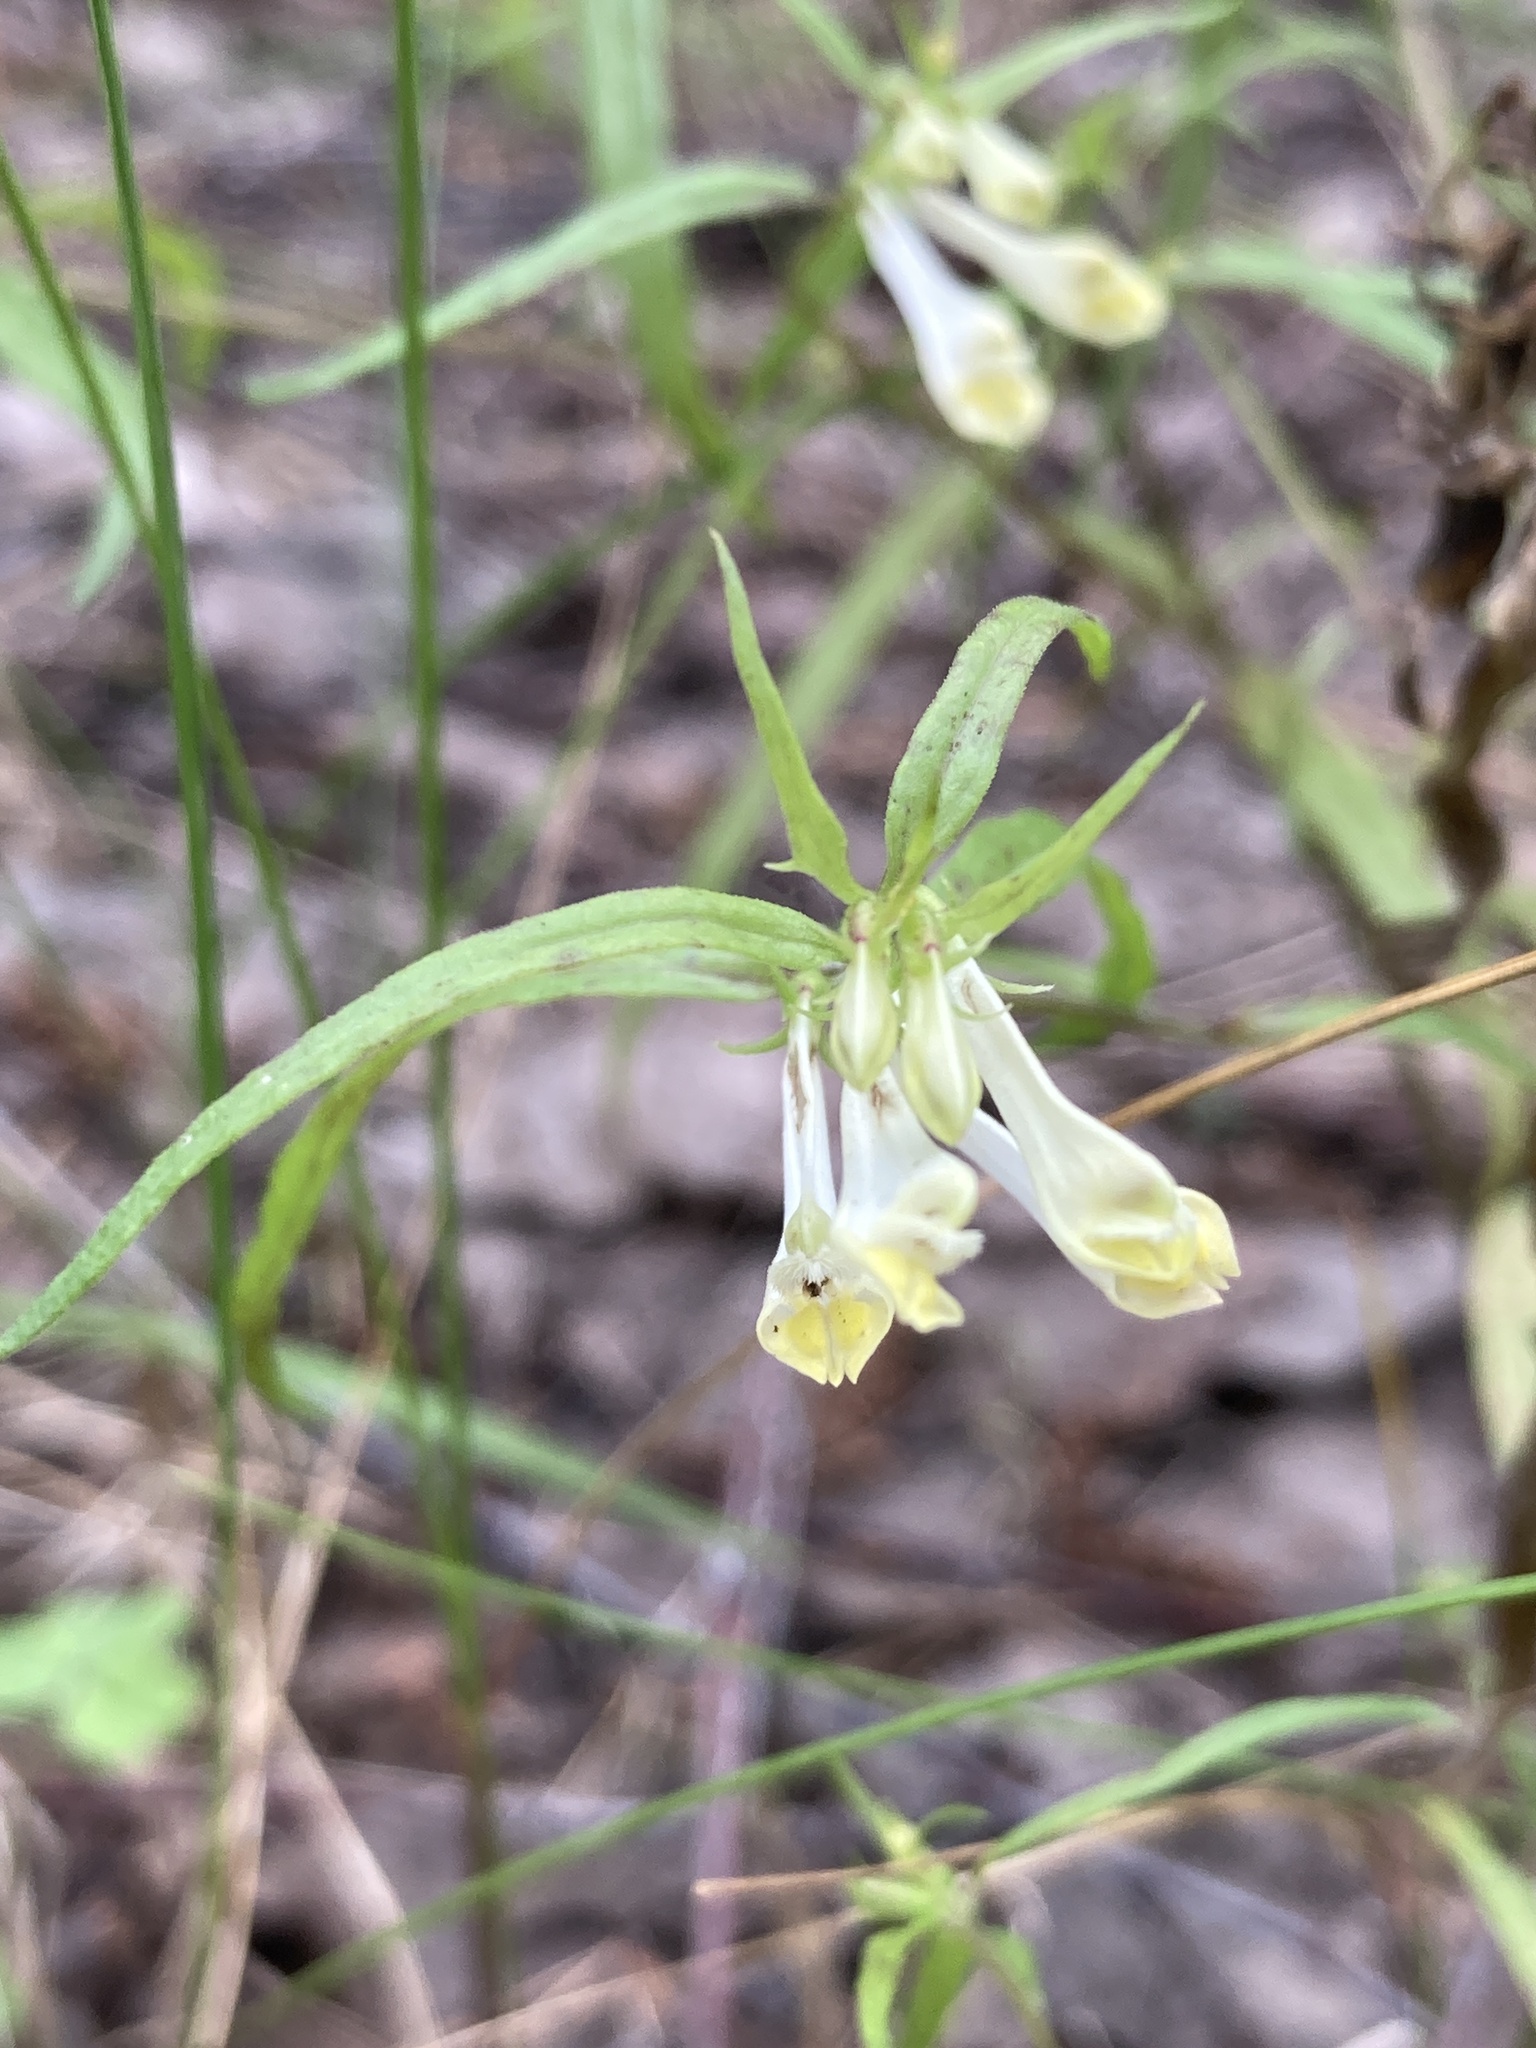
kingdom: Plantae
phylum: Tracheophyta
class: Magnoliopsida
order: Lamiales
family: Orobanchaceae
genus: Melampyrum
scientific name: Melampyrum pratense
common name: Common cow-wheat
